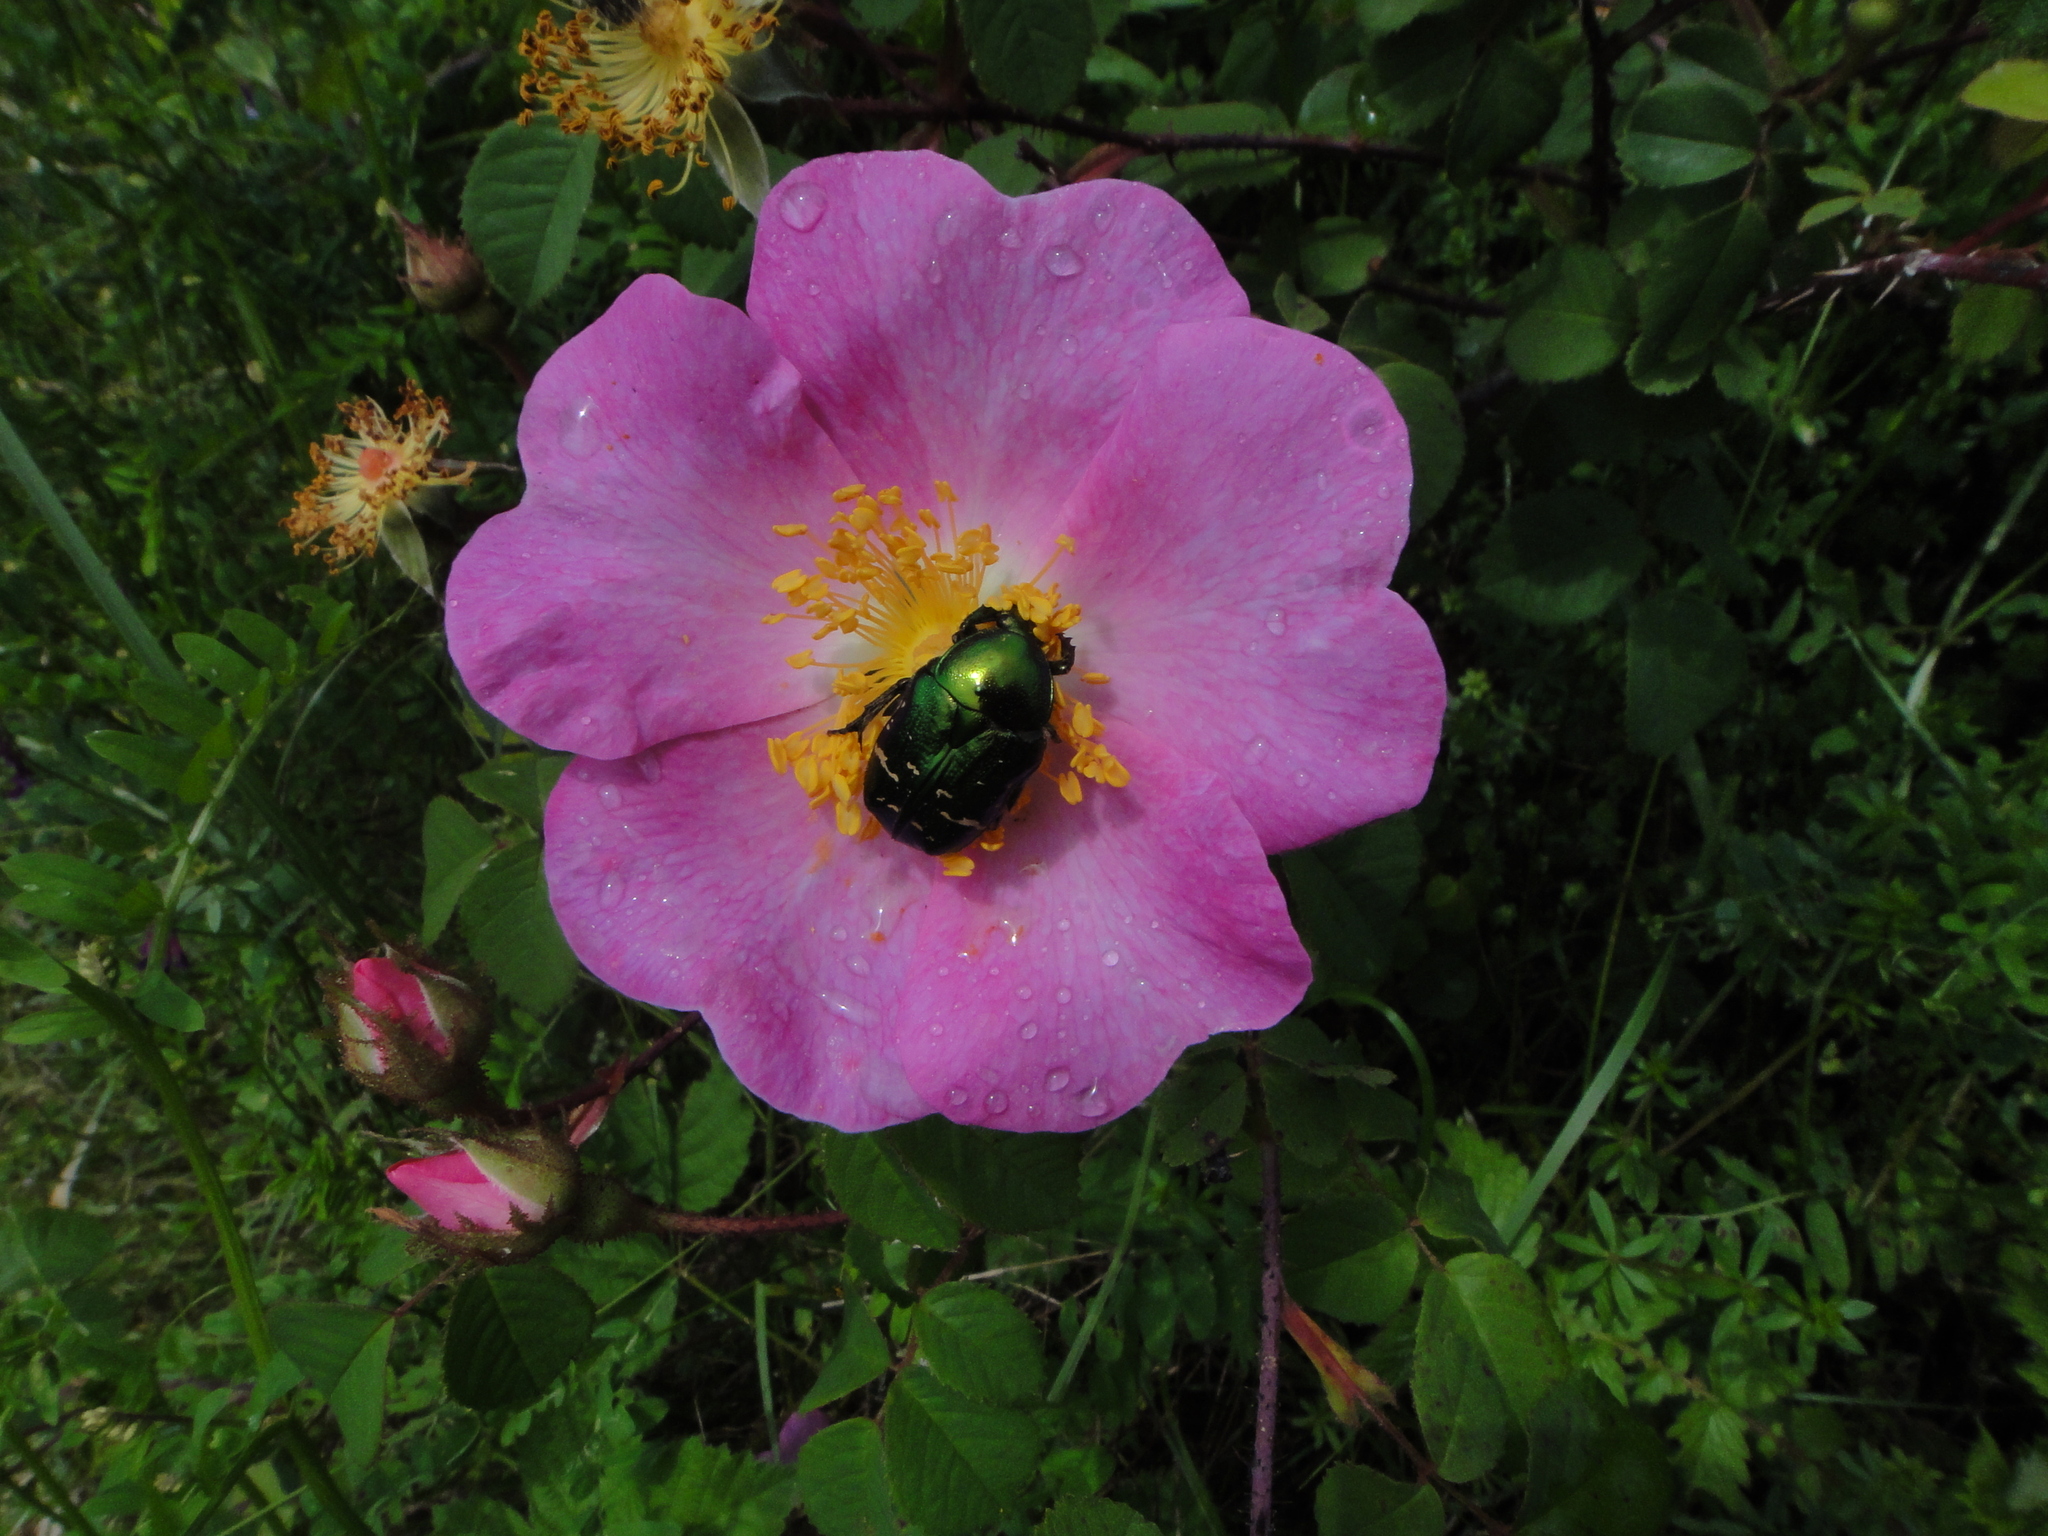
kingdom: Plantae
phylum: Tracheophyta
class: Magnoliopsida
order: Rosales
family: Rosaceae
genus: Rosa
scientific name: Rosa gallica
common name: French rose
